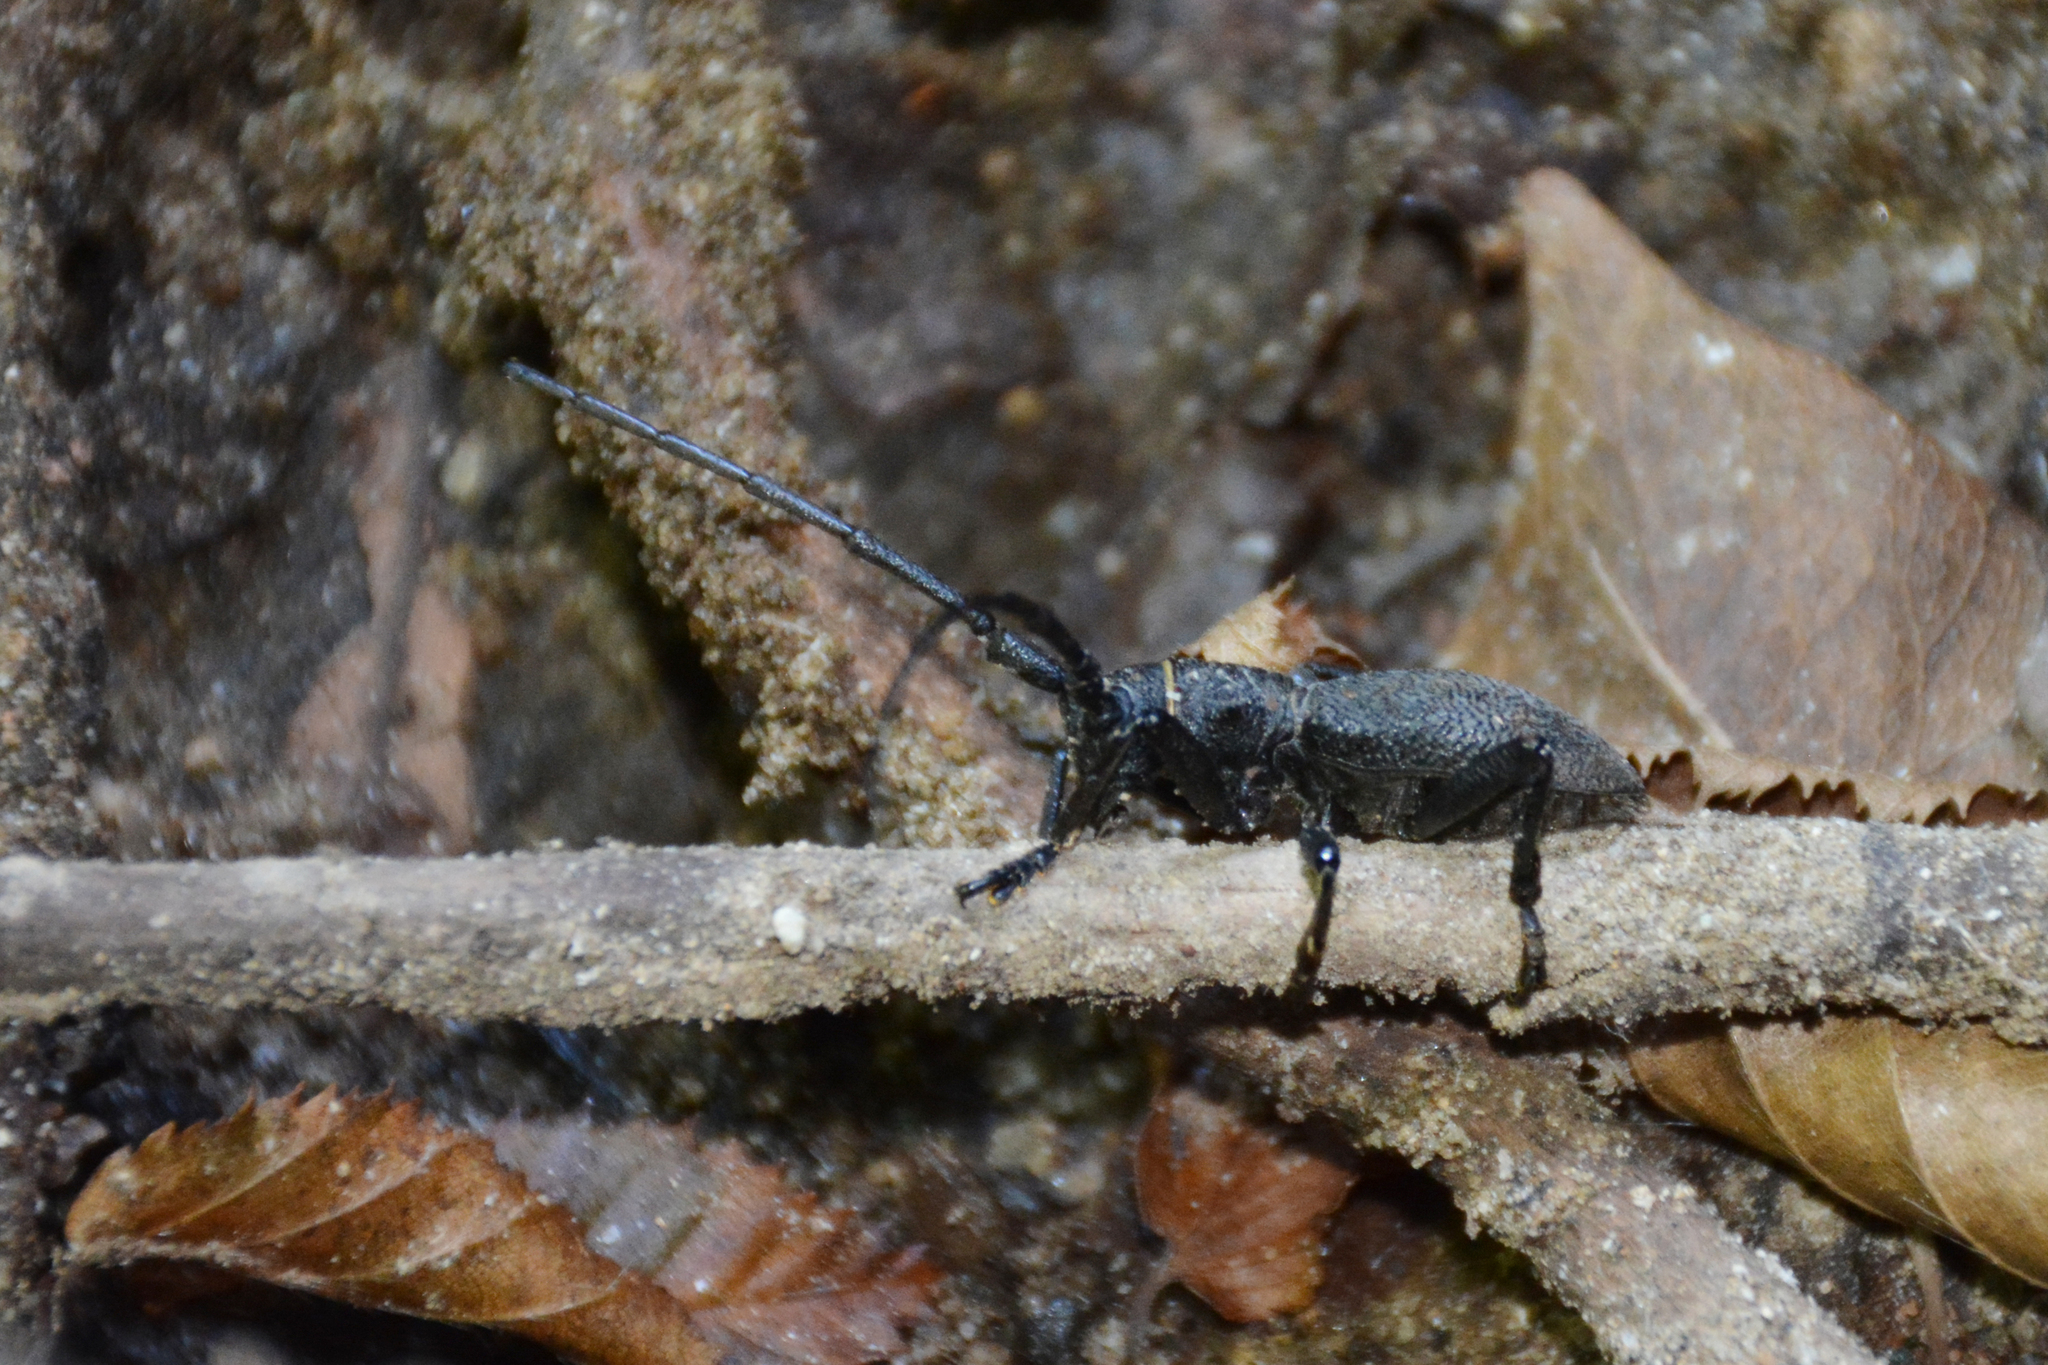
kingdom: Animalia
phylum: Arthropoda
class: Insecta
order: Coleoptera
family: Cerambycidae
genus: Morimus
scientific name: Morimus verecundus
